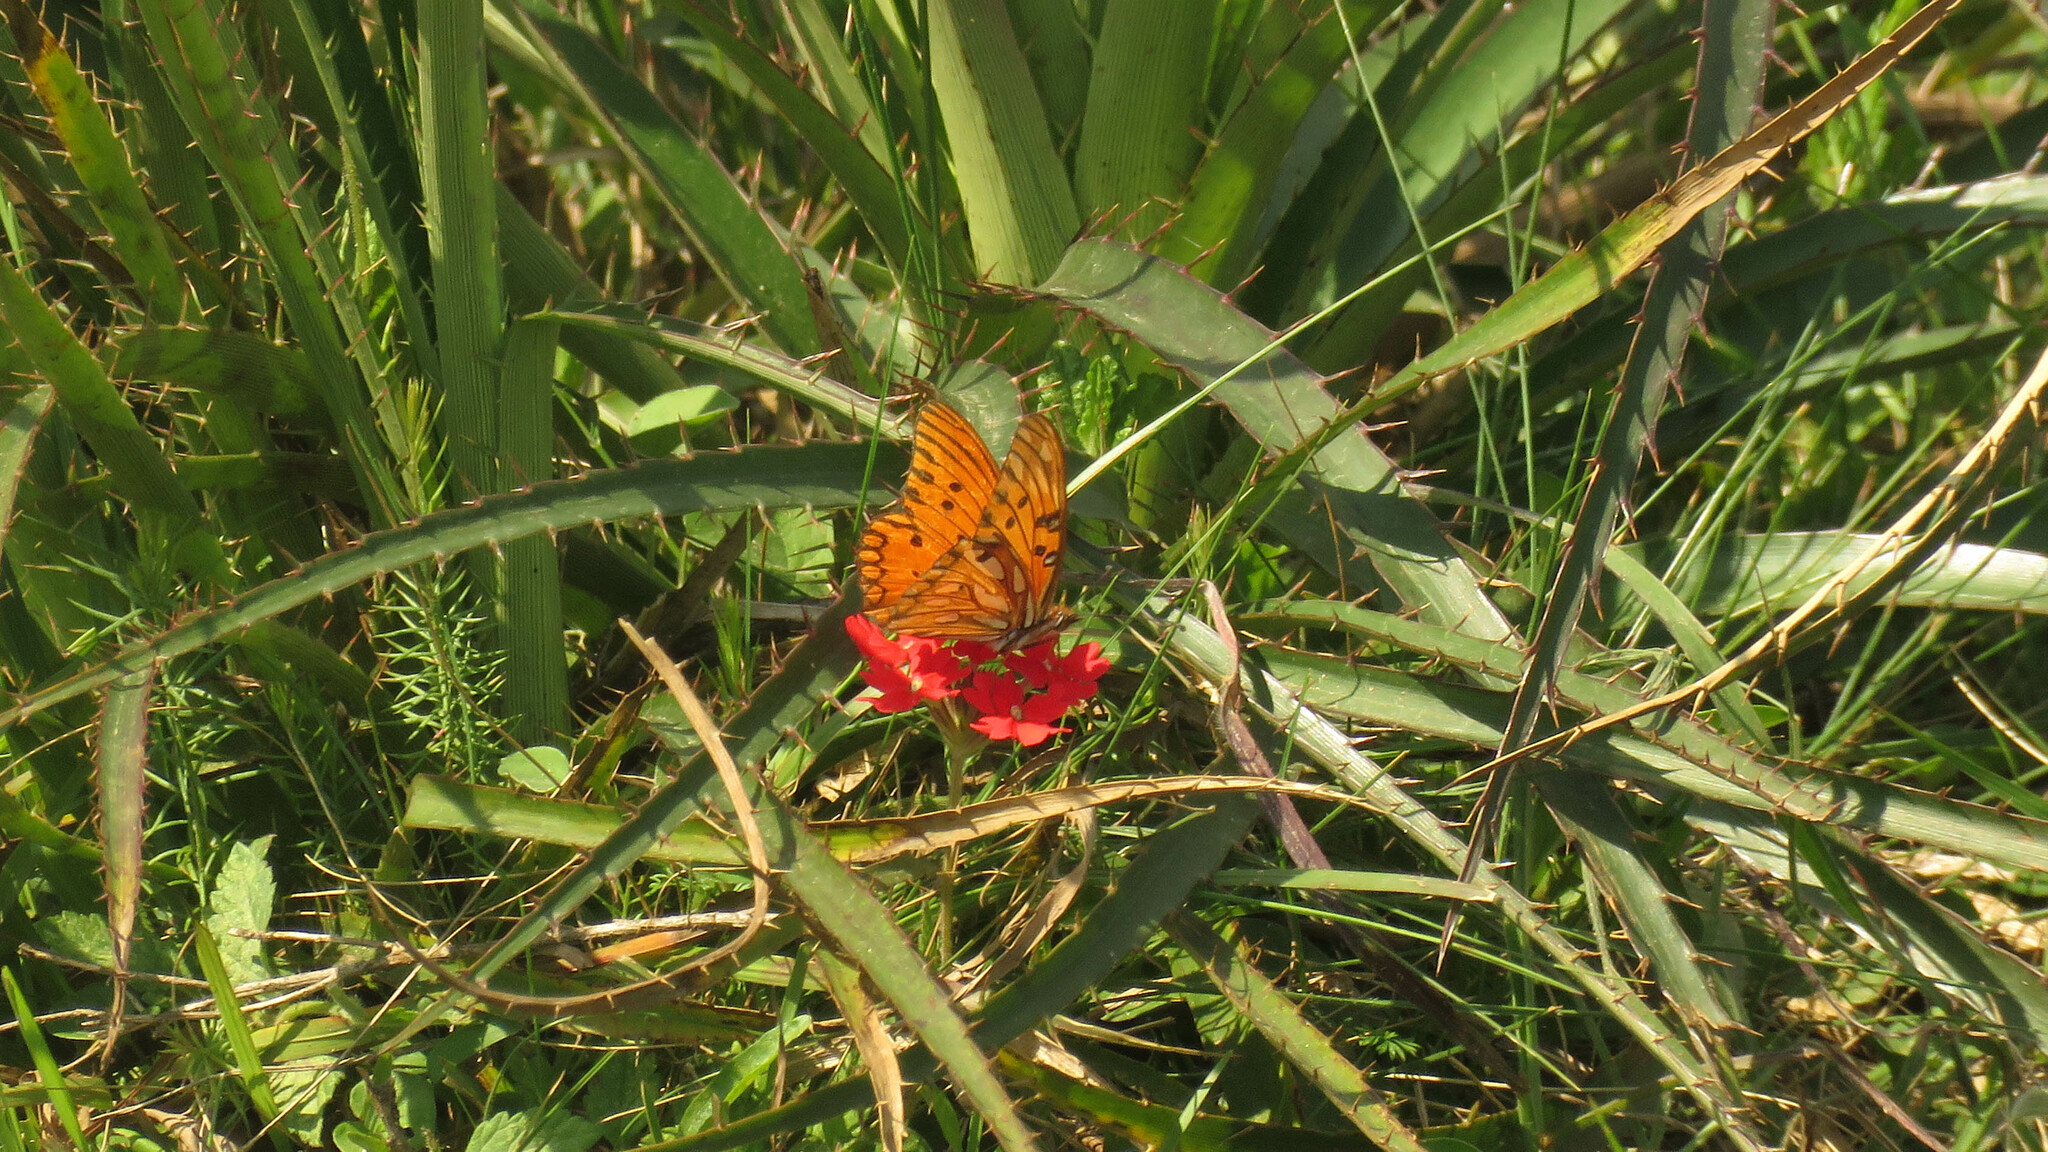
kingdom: Animalia
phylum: Arthropoda
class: Insecta
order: Lepidoptera
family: Nymphalidae
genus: Dione
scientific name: Dione vanillae
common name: Gulf fritillary
